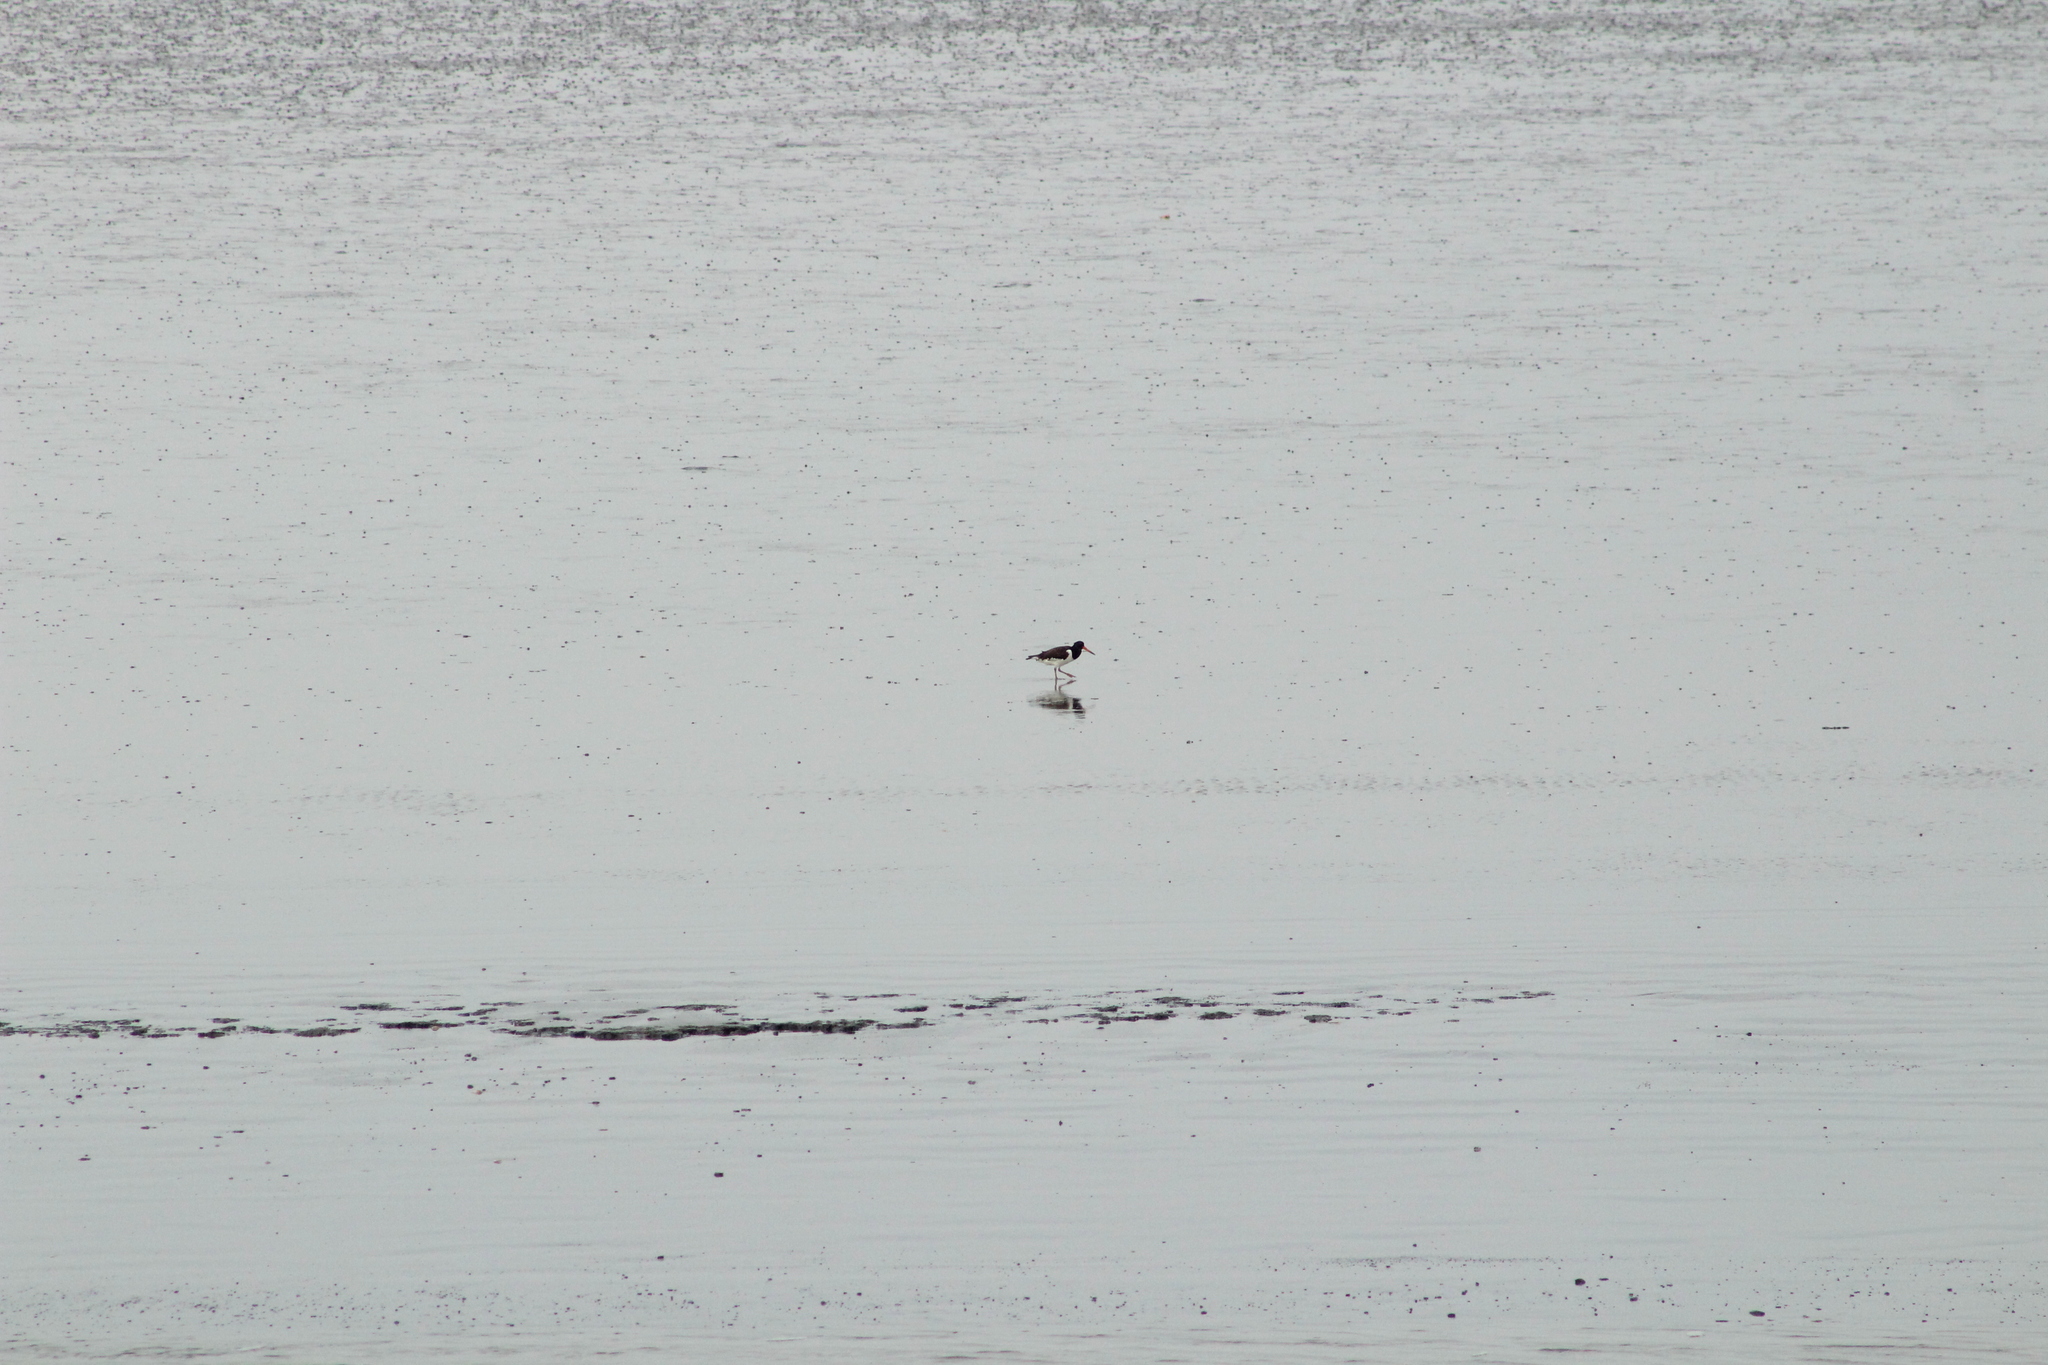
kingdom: Animalia
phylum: Chordata
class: Aves
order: Charadriiformes
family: Haematopodidae
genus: Haematopus
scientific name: Haematopus ostralegus
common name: Eurasian oystercatcher
